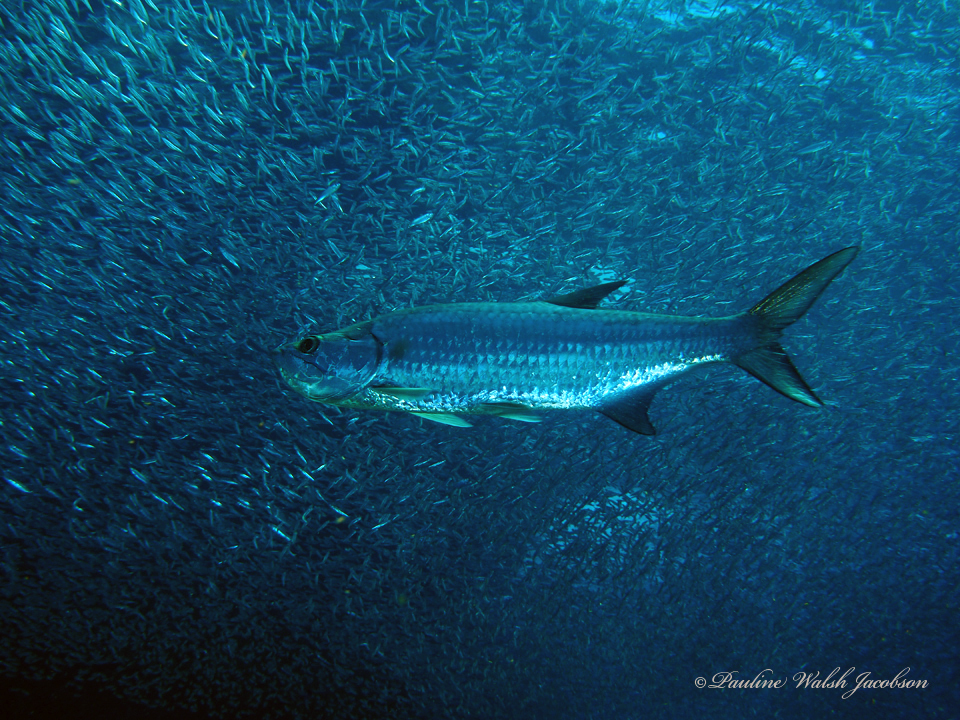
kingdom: Animalia
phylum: Chordata
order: Elopiformes
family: Megalopidae
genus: Megalops
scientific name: Megalops atlanticus
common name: Tarpon
